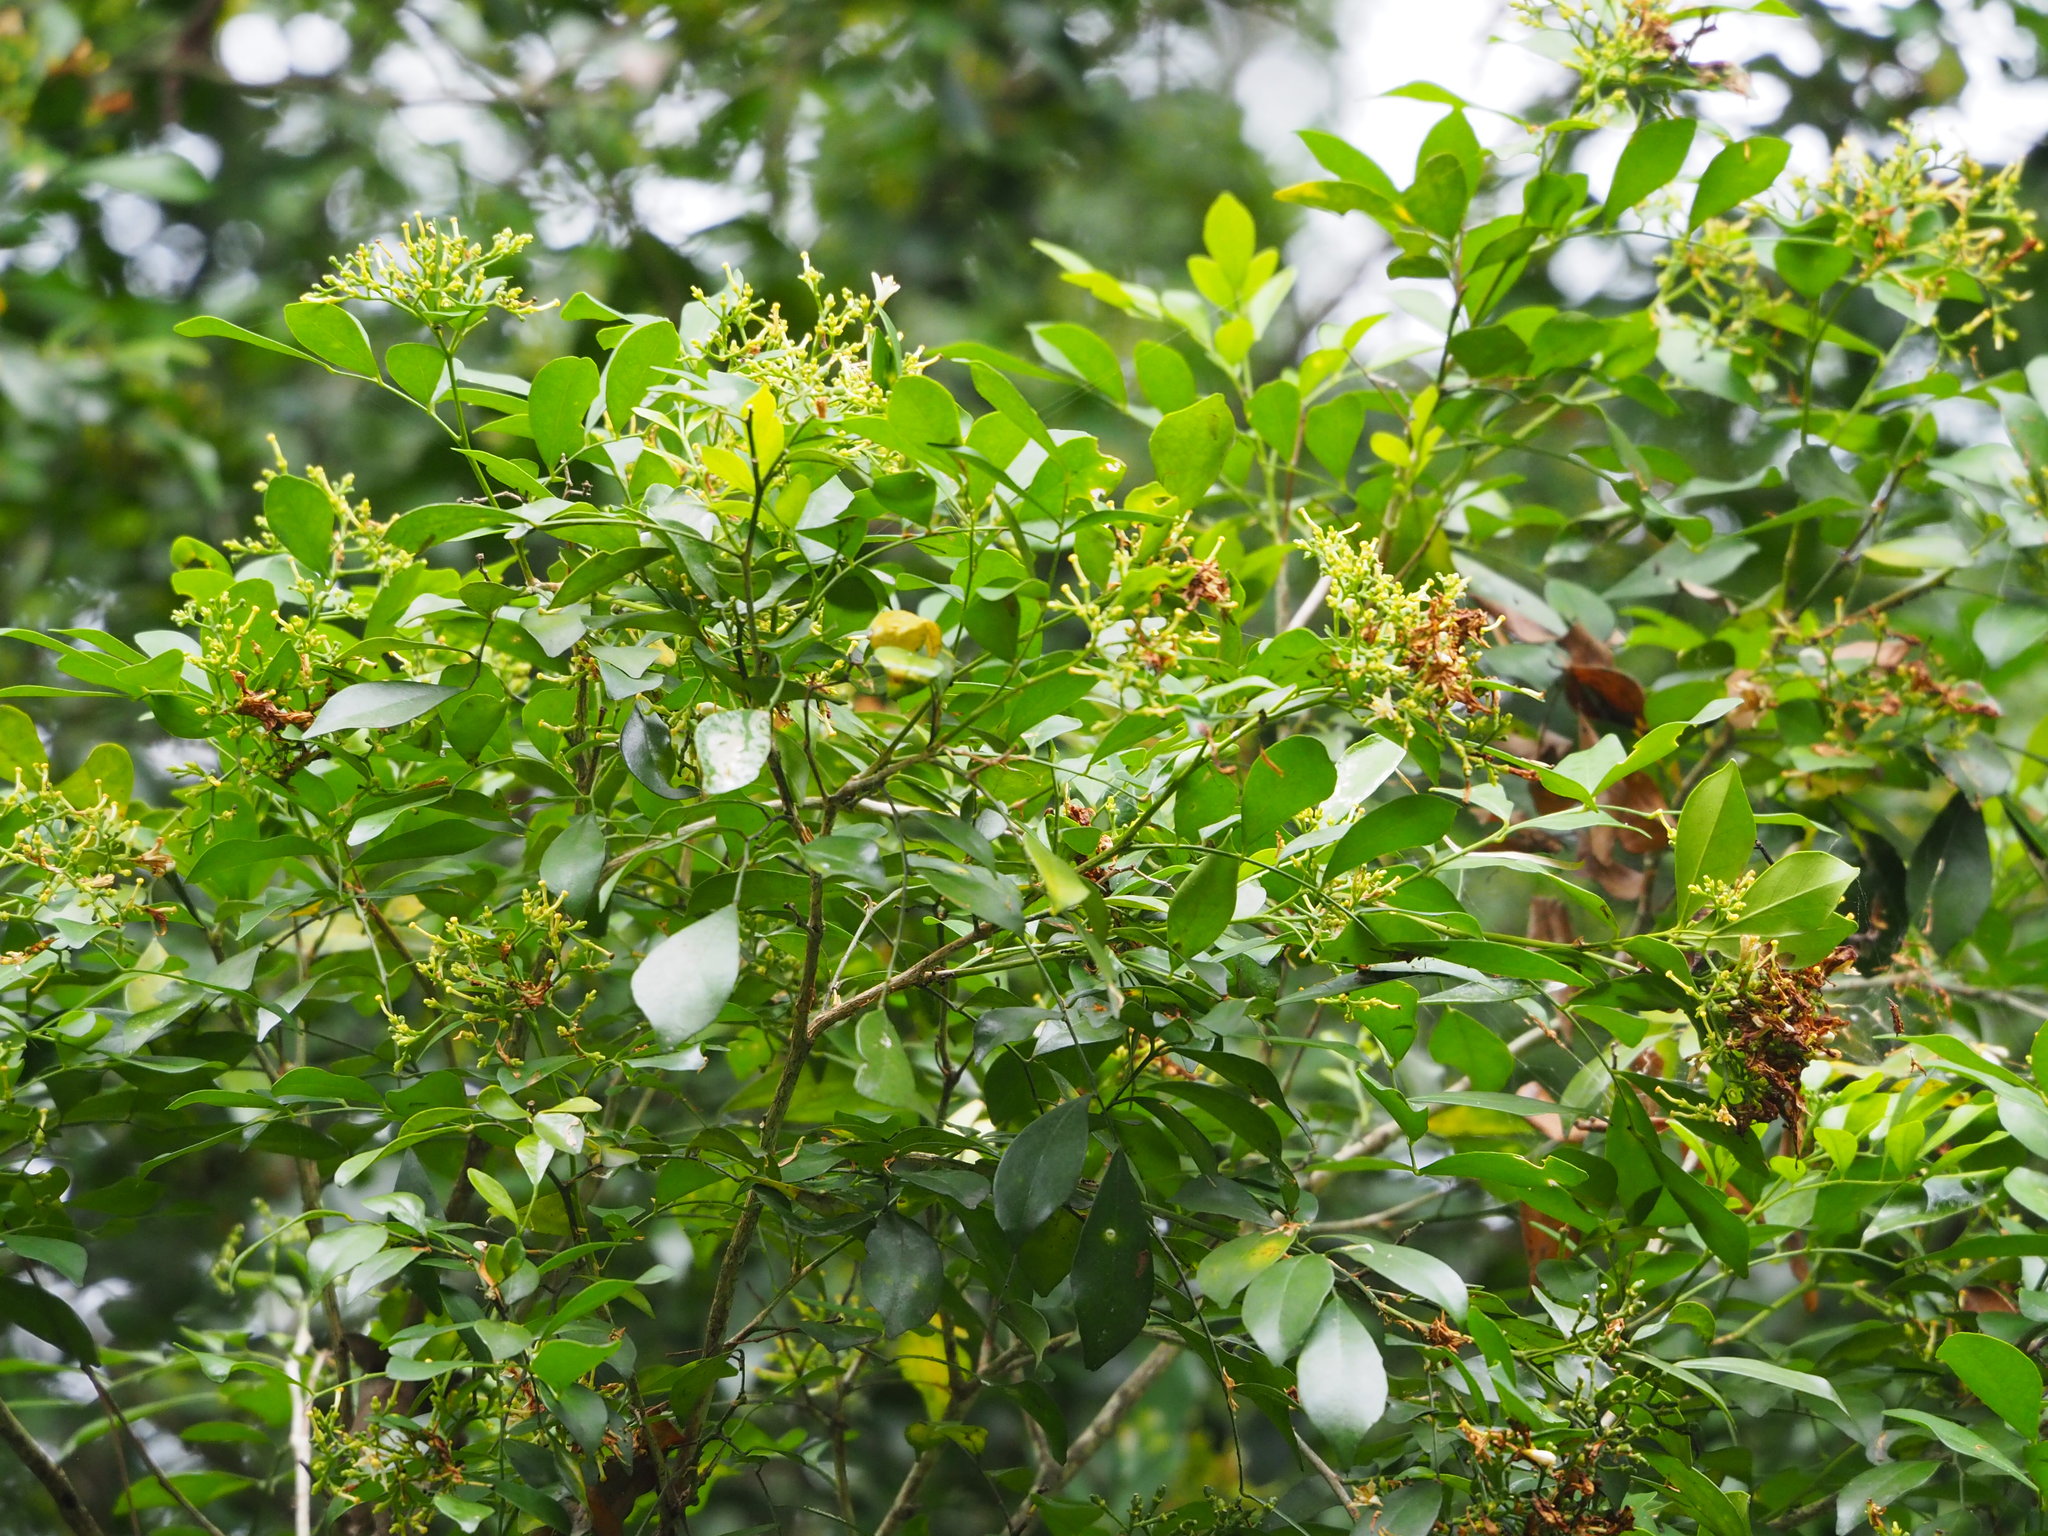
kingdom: Plantae
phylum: Tracheophyta
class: Magnoliopsida
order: Sapindales
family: Rutaceae
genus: Murraya
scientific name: Murraya paniculata
